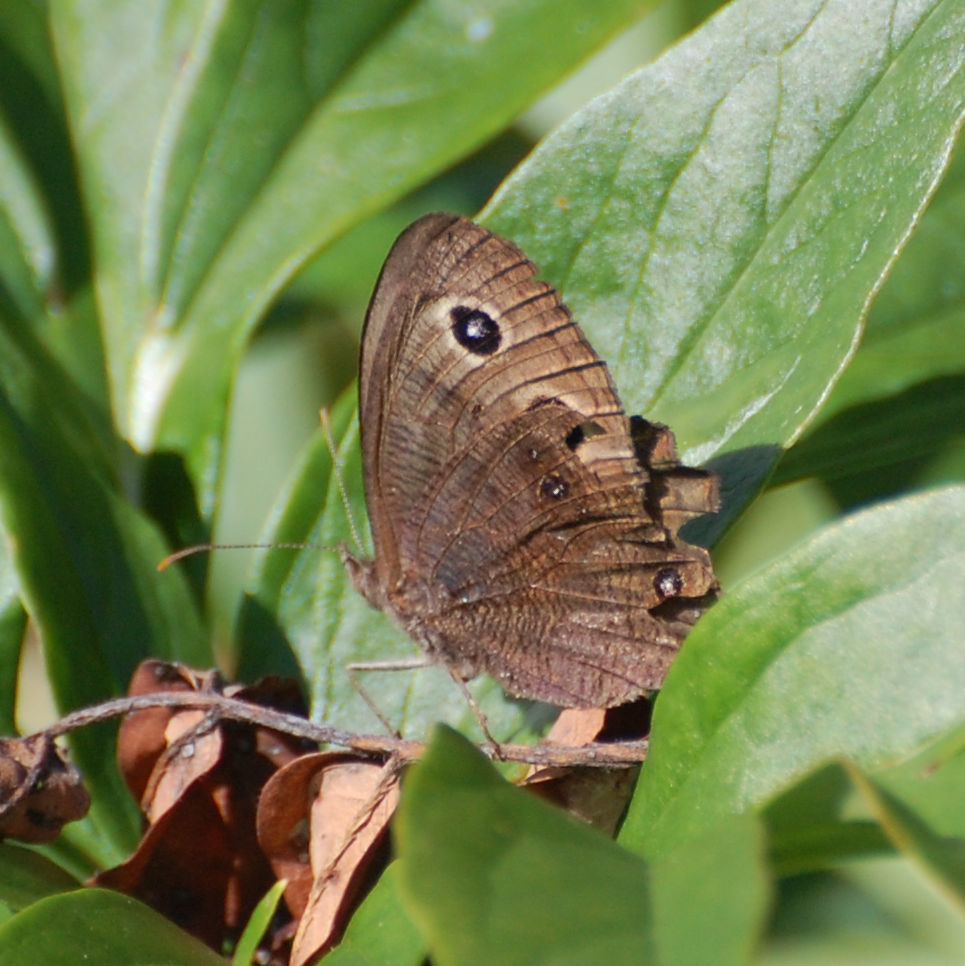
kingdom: Animalia
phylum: Arthropoda
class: Insecta
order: Lepidoptera
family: Nymphalidae
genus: Cercyonis
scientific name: Cercyonis pegala
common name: Common wood-nymph
